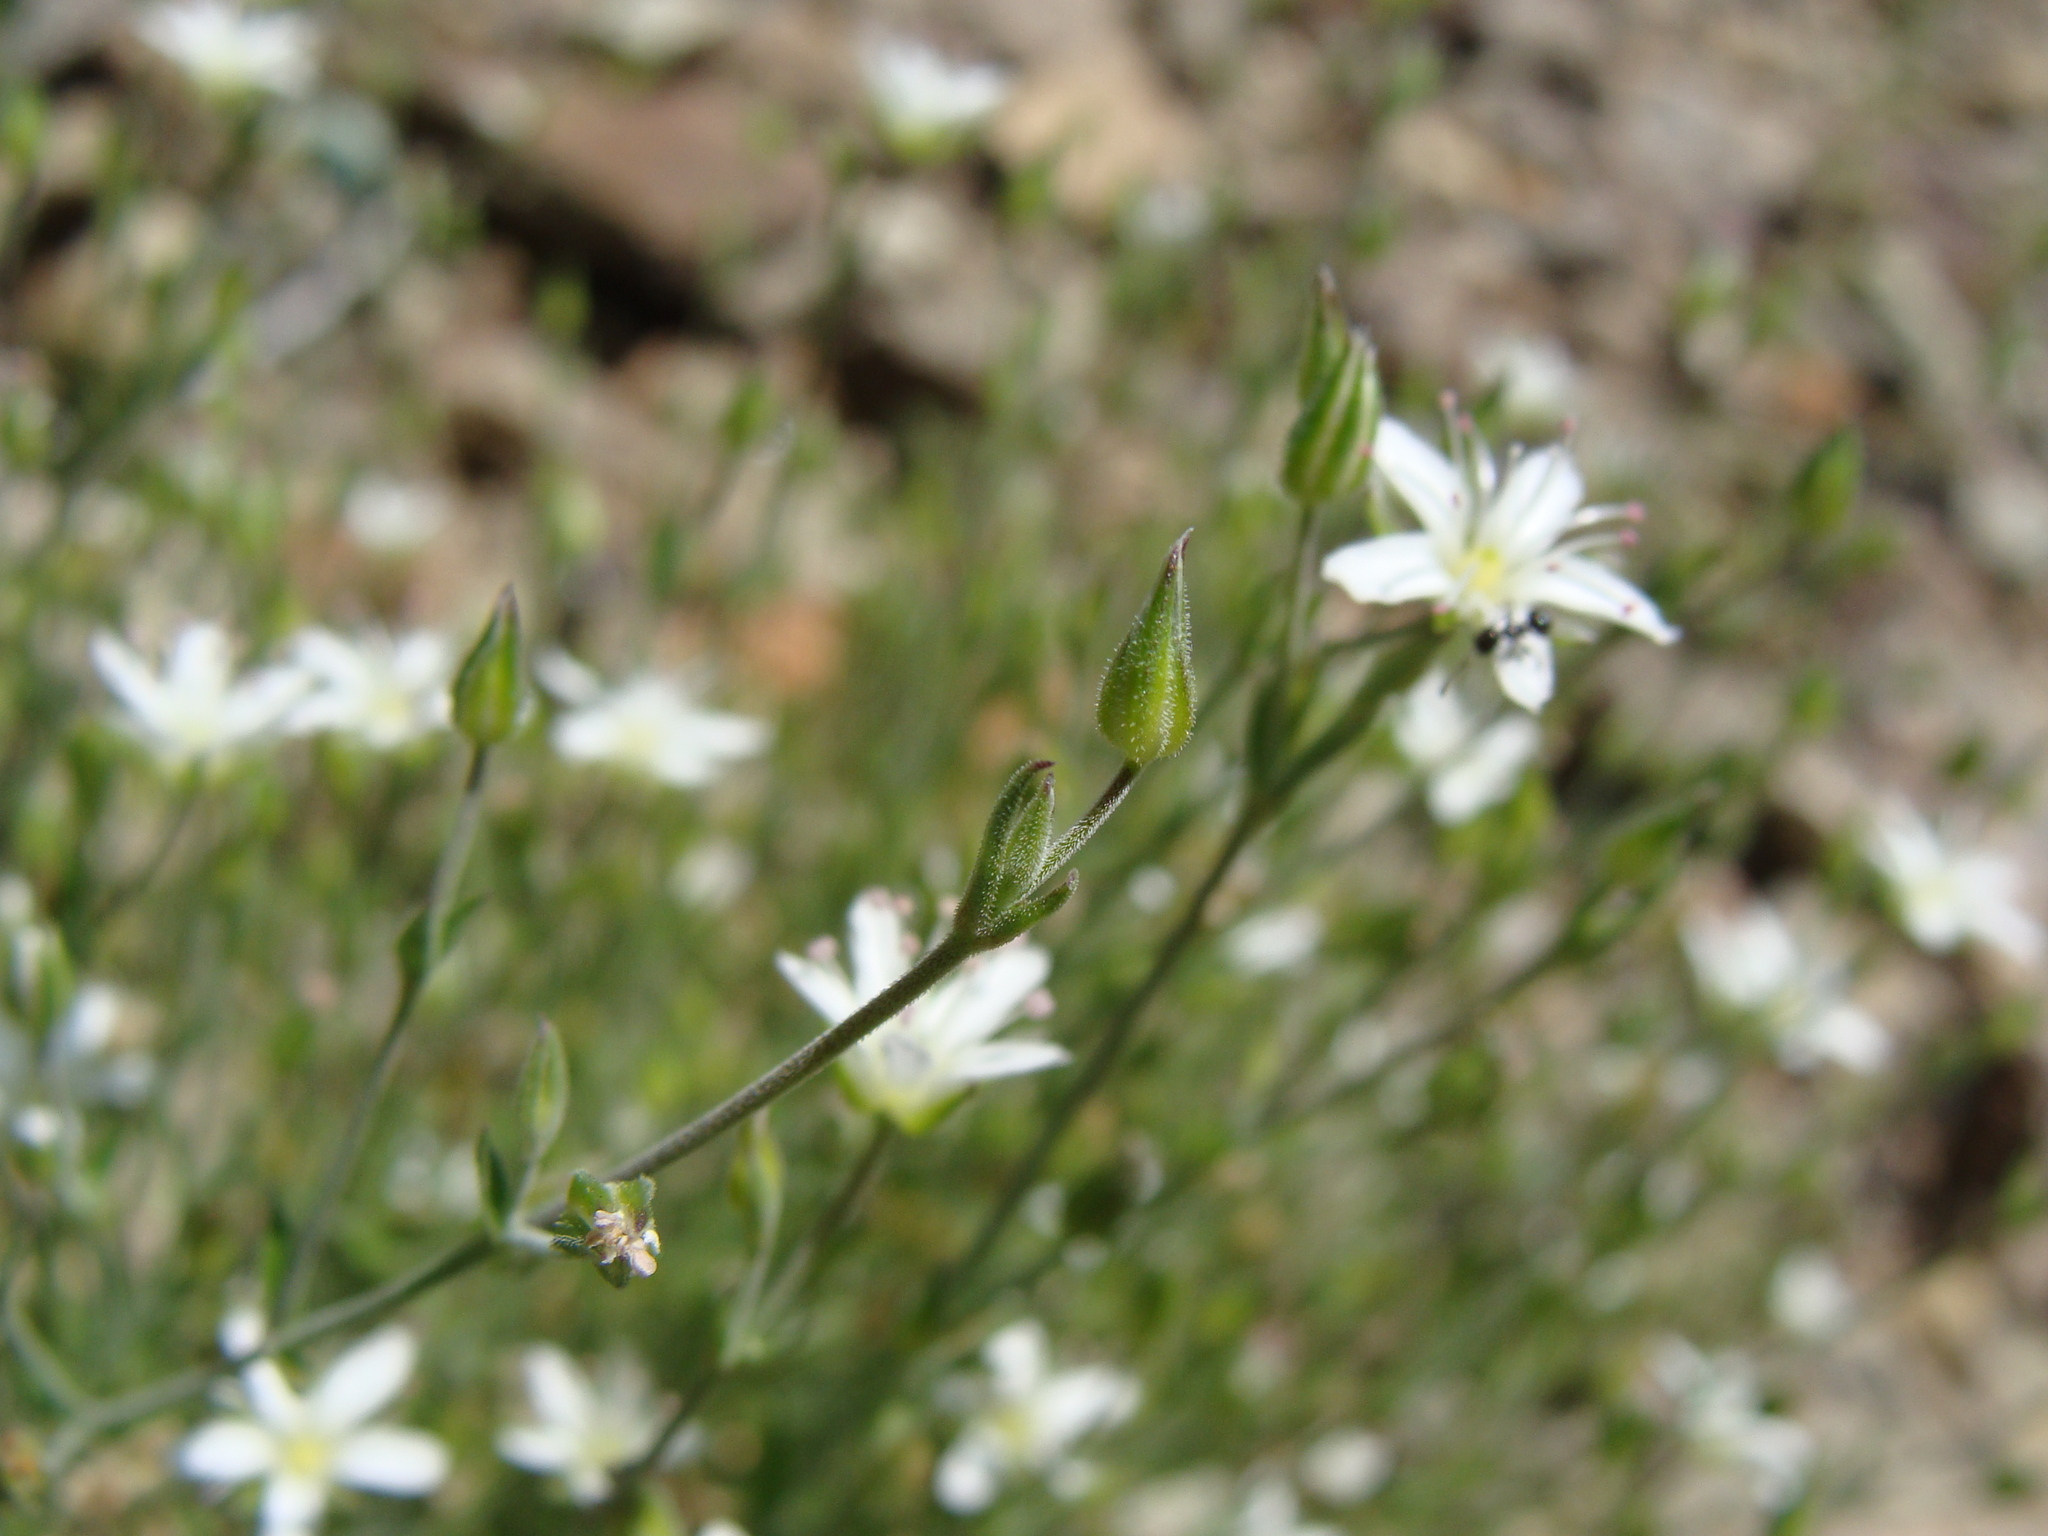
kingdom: Plantae
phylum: Tracheophyta
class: Magnoliopsida
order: Caryophyllales
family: Caryophyllaceae
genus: Arenaria
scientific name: Arenaria lanuginosa
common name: Spread sandwort
